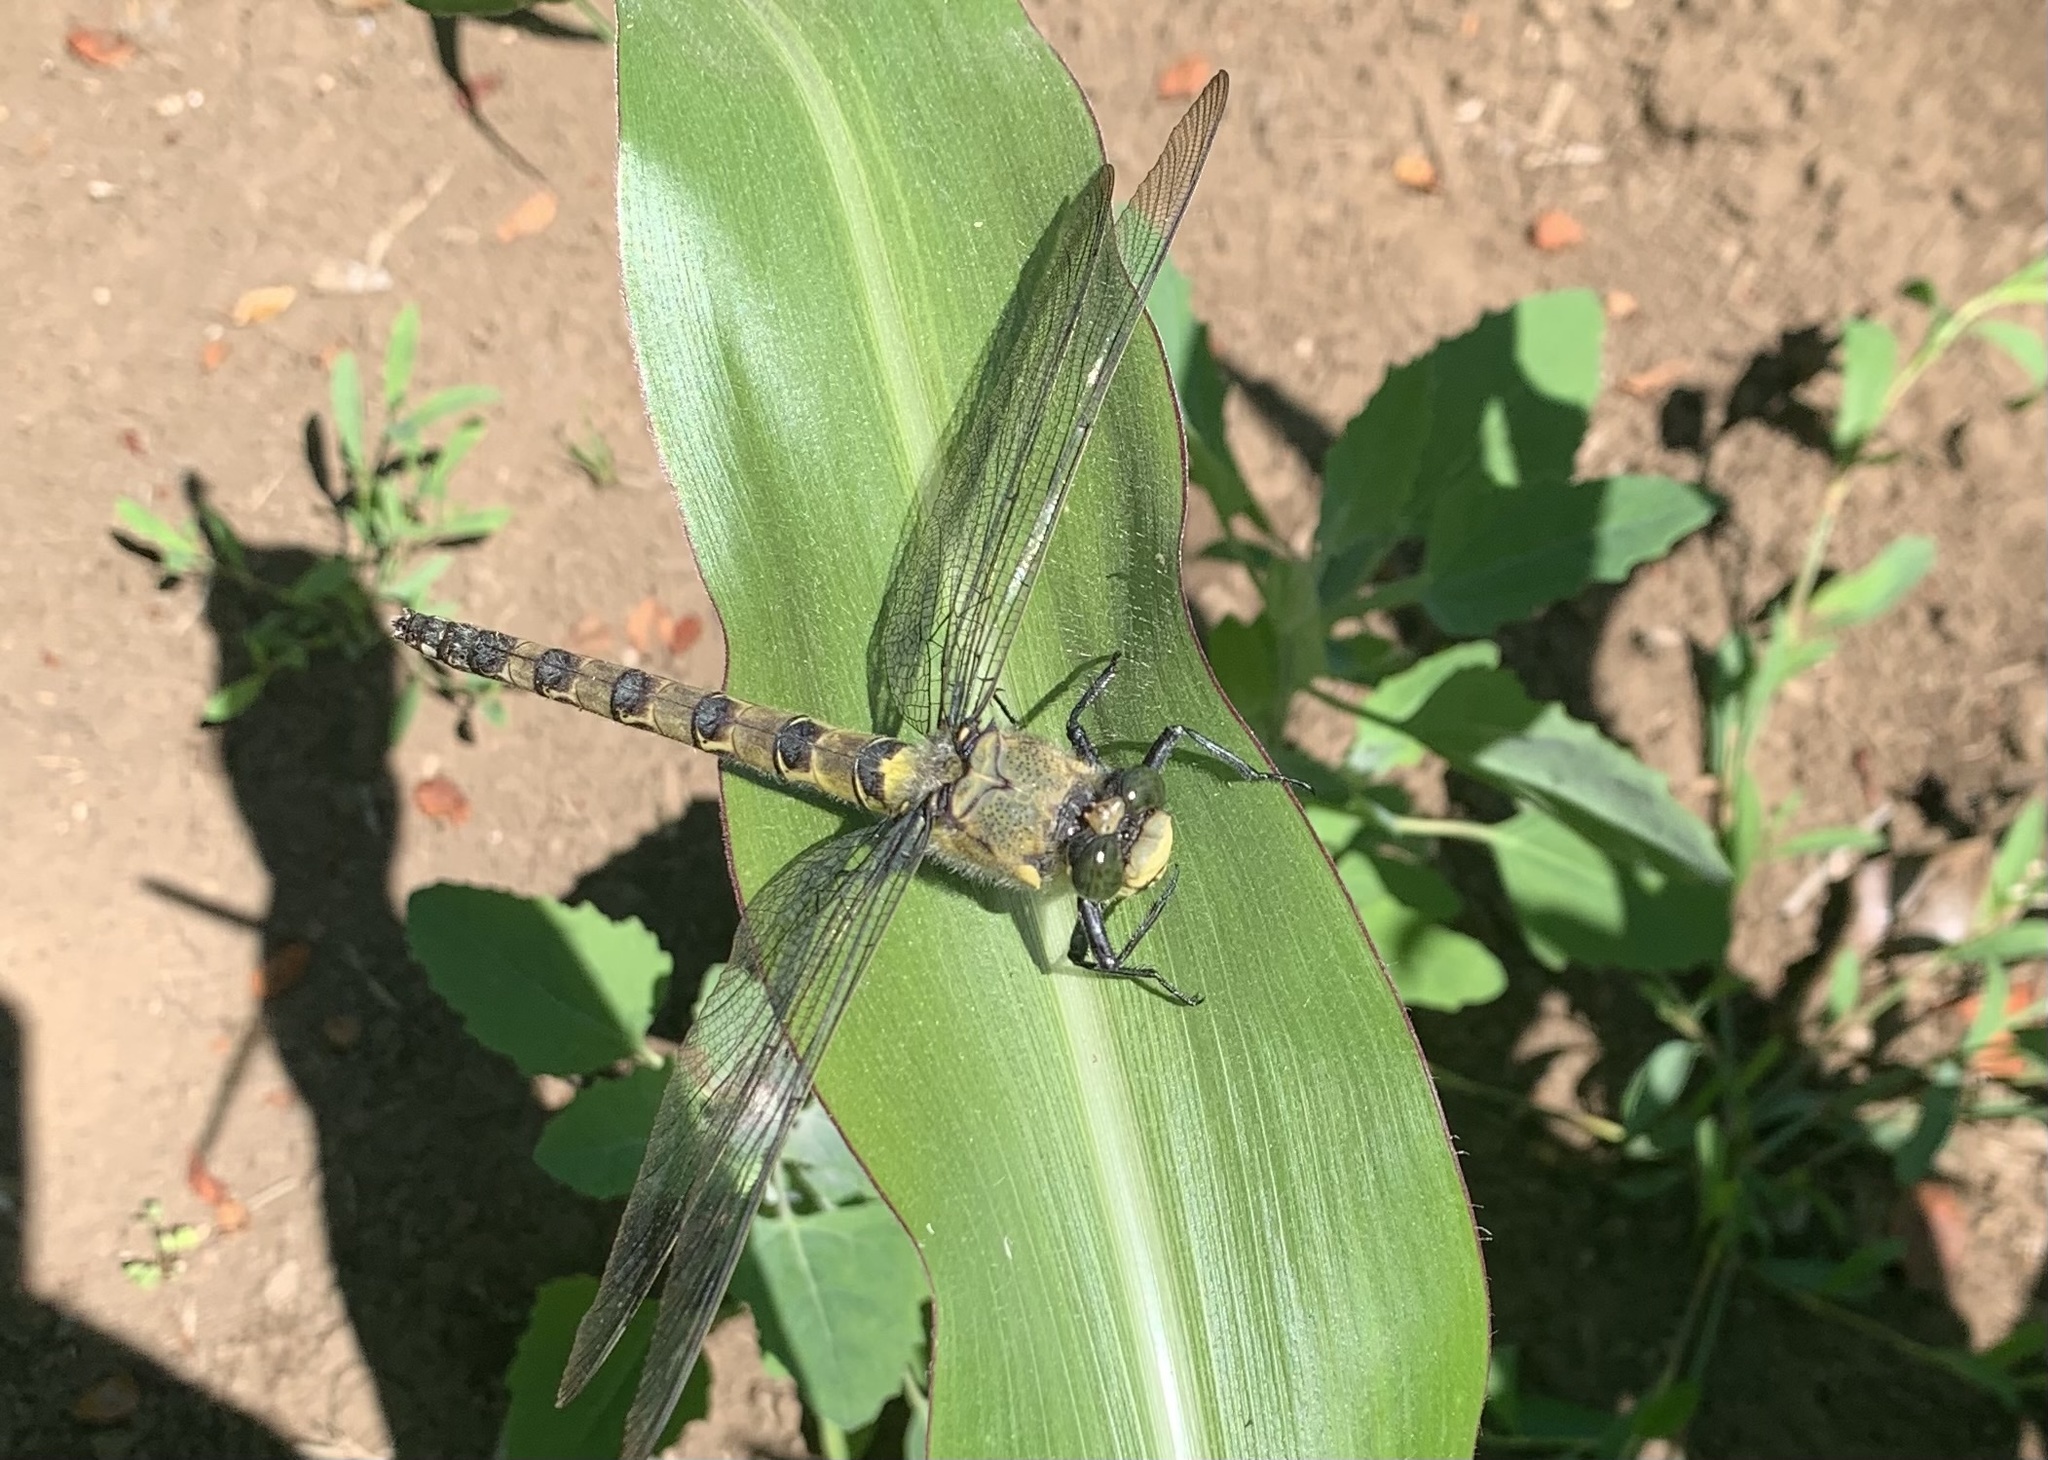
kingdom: Animalia
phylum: Arthropoda
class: Insecta
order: Odonata
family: Petaluridae
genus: Phenes
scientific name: Phenes raptor
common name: Chilean petaltail
